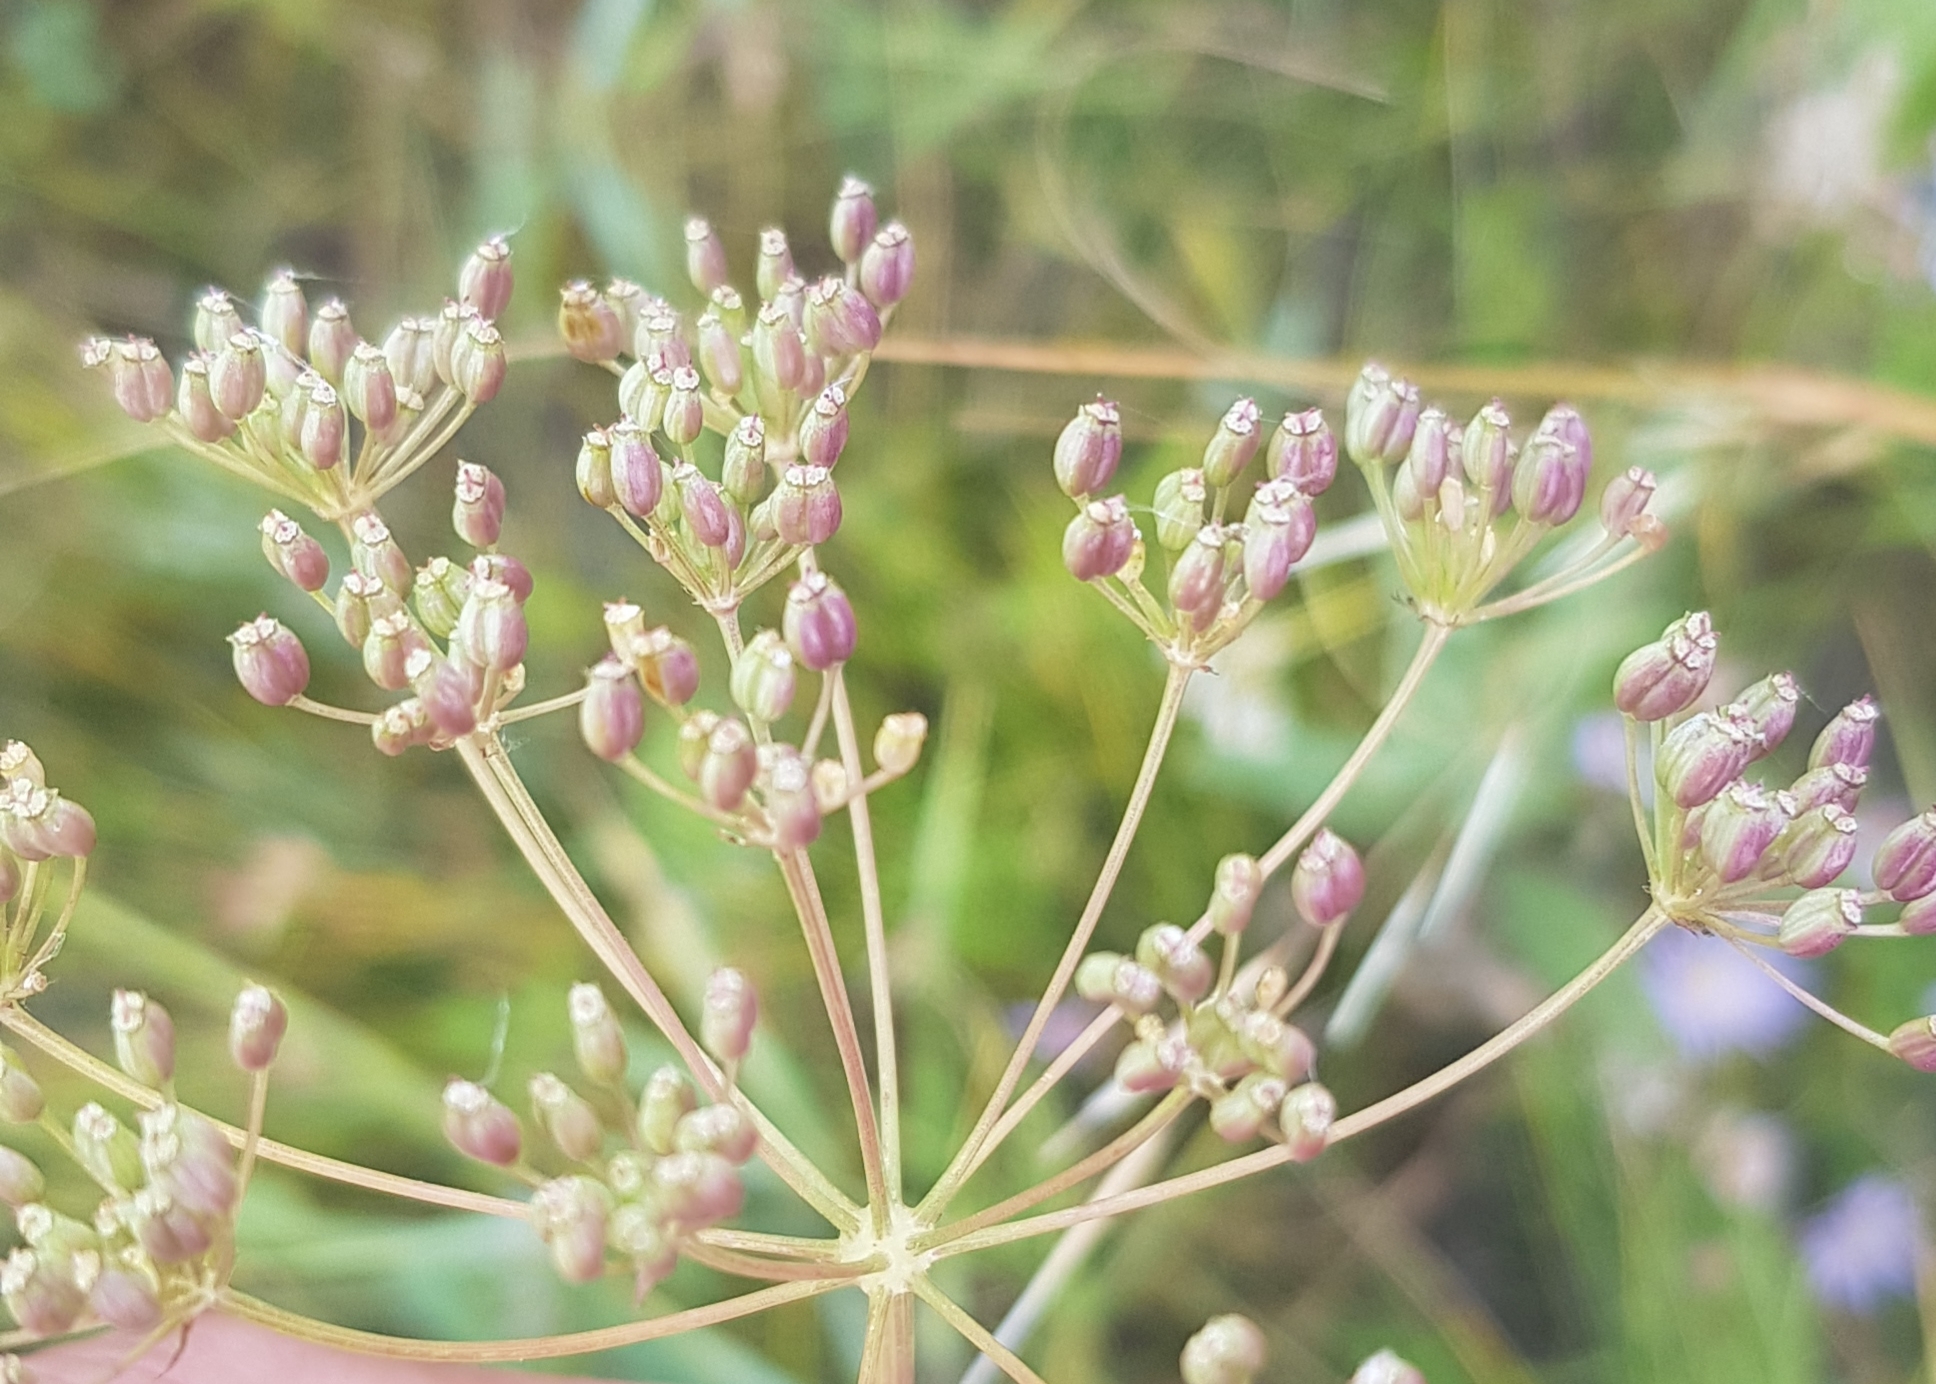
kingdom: Plantae
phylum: Tracheophyta
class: Magnoliopsida
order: Apiales
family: Apiaceae
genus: Carum
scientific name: Carum buriaticum
